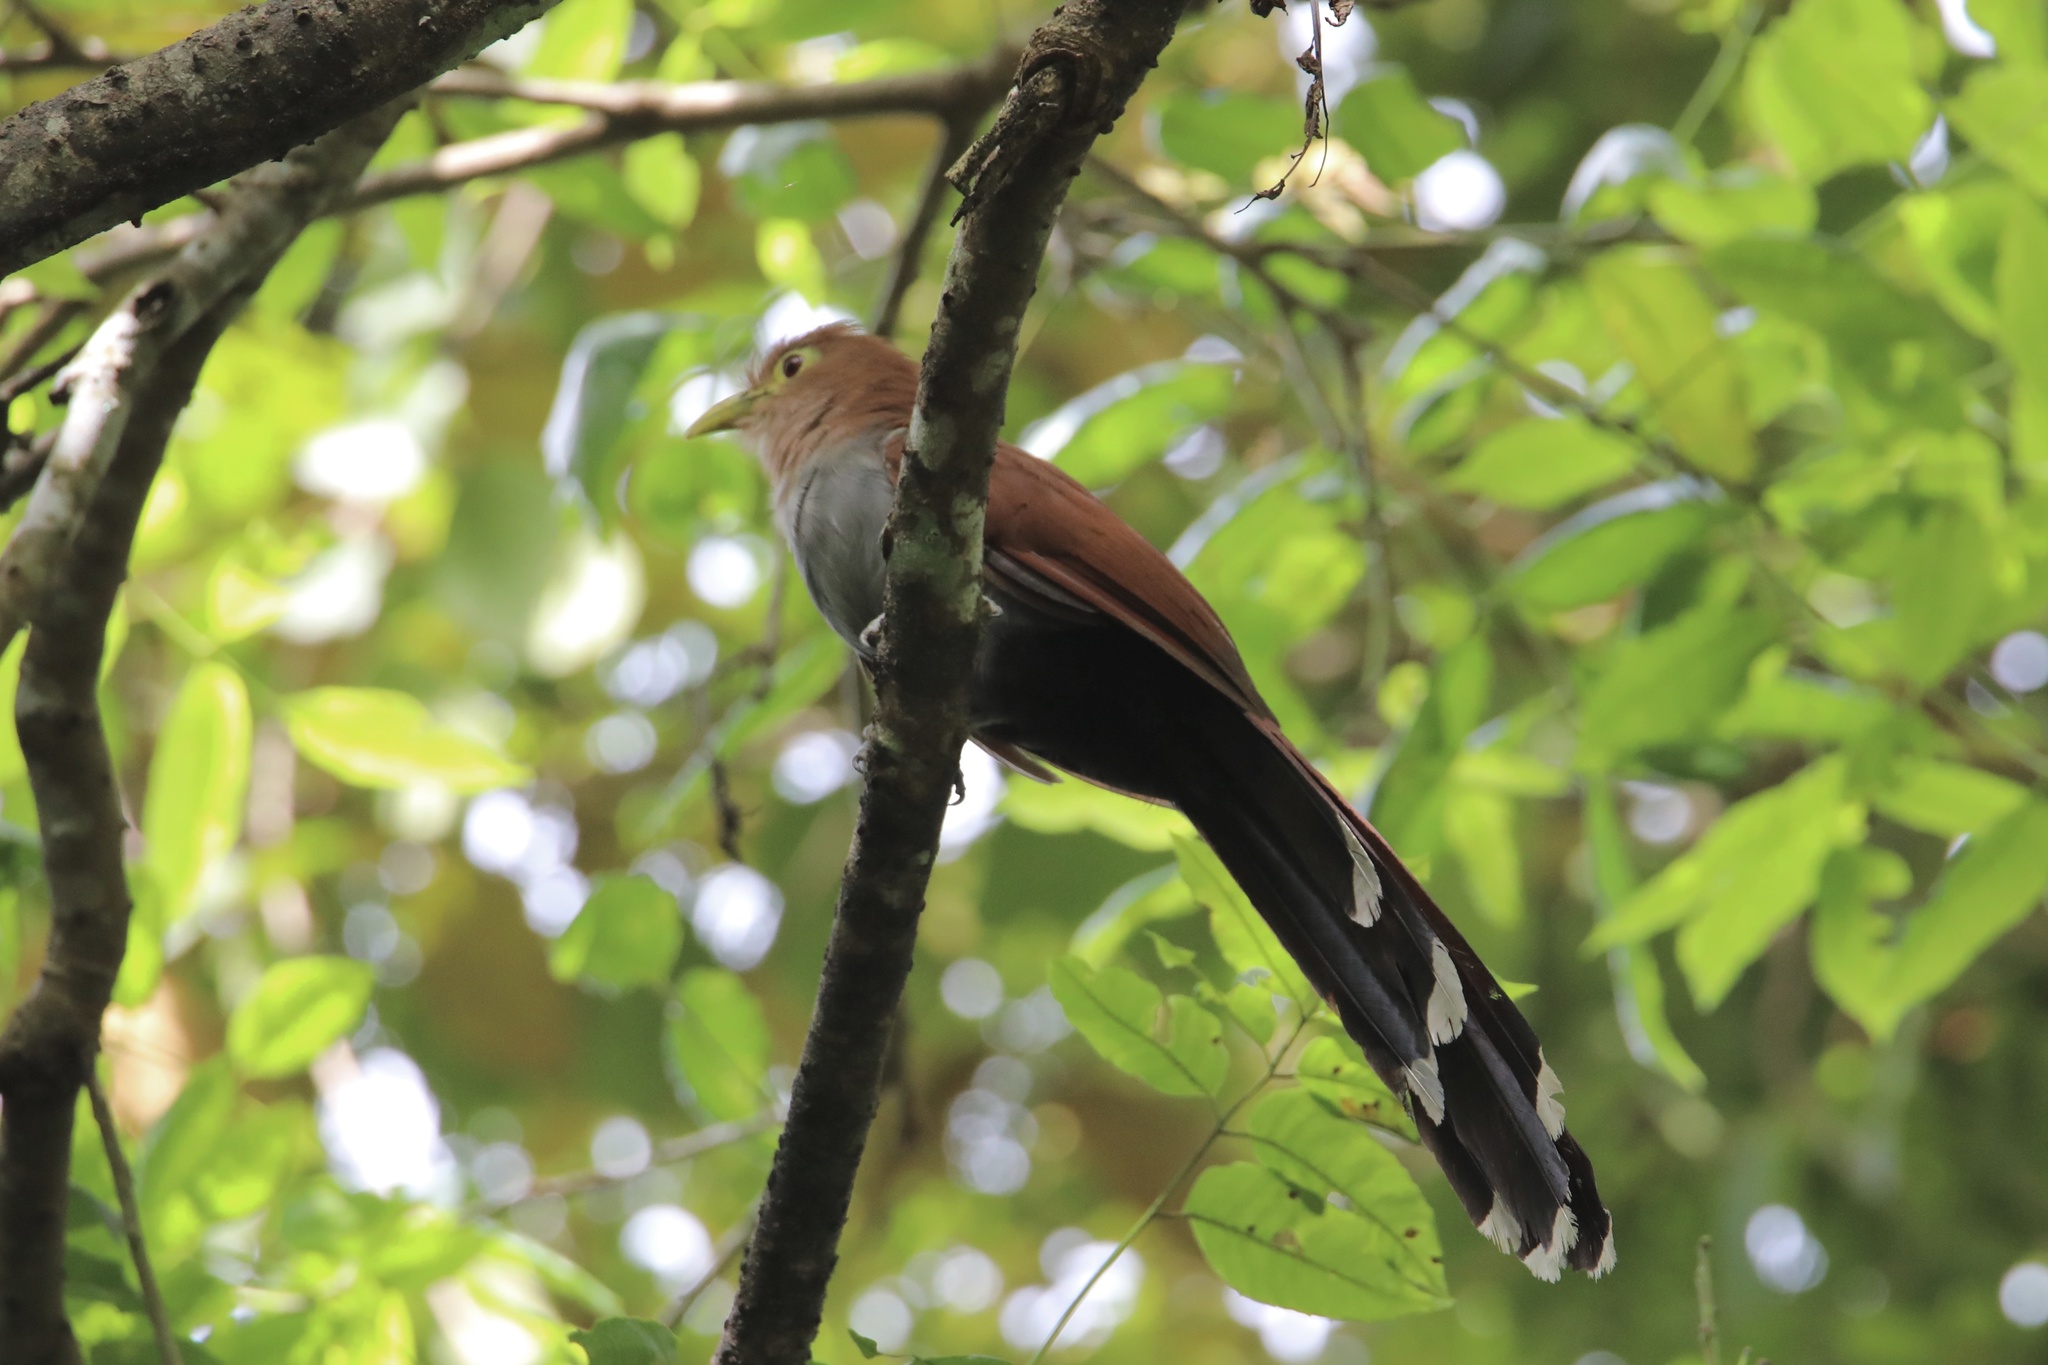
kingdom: Animalia
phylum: Chordata
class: Aves
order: Cuculiformes
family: Cuculidae
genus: Piaya
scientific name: Piaya cayana
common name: Squirrel cuckoo
